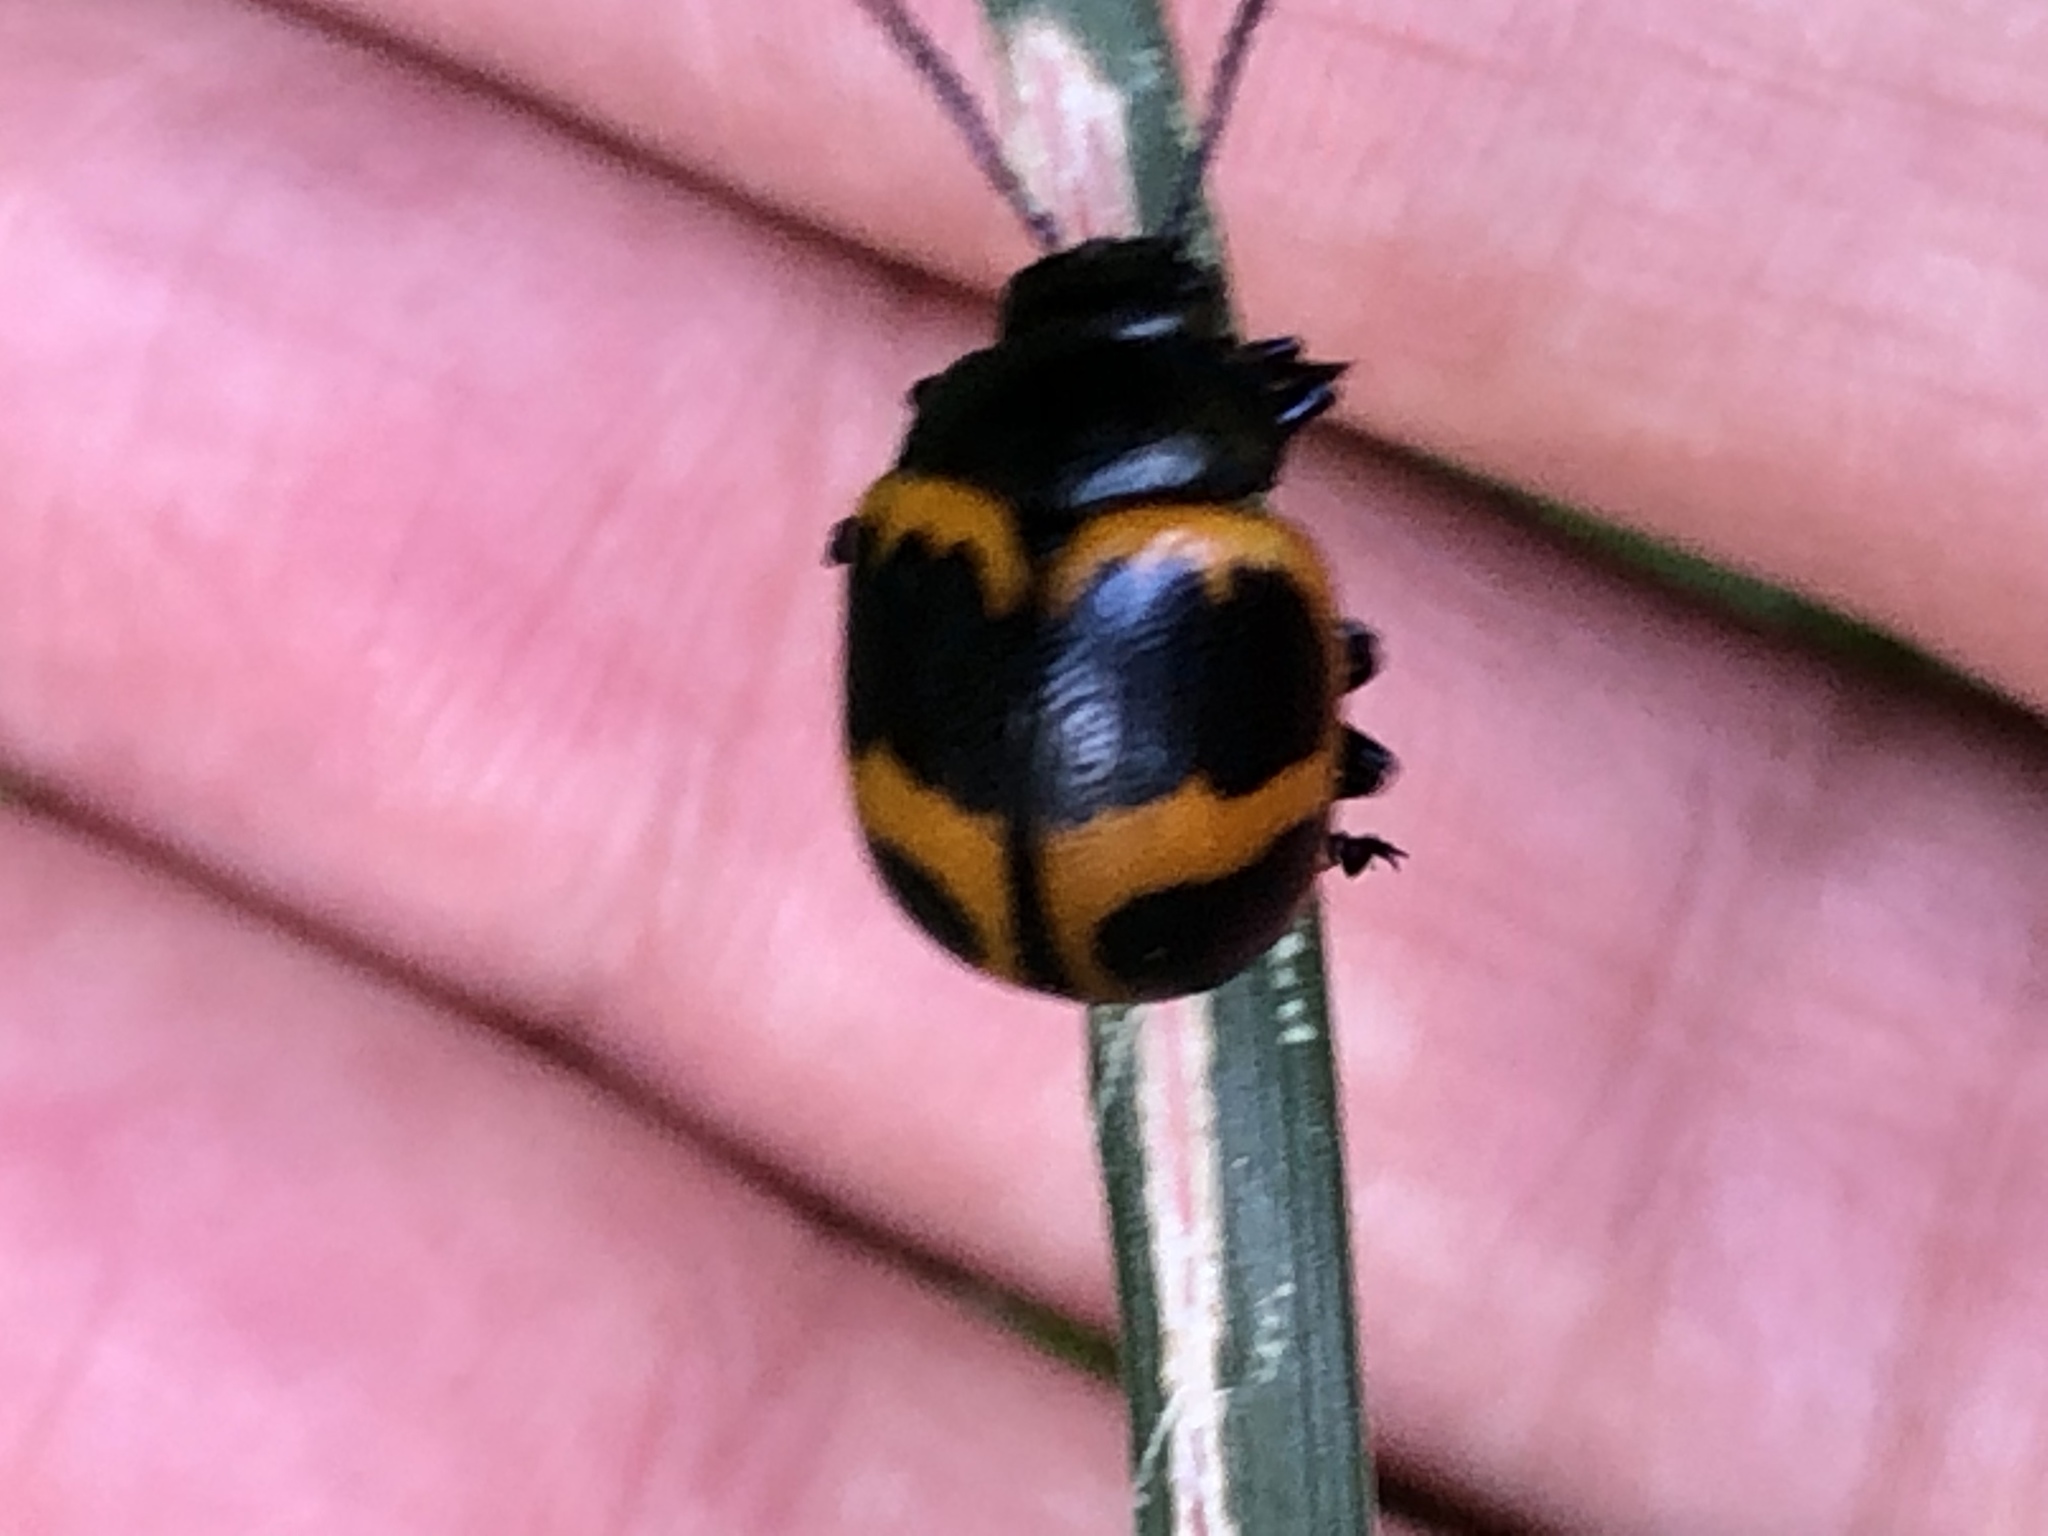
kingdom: Animalia
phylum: Arthropoda
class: Insecta
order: Coleoptera
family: Chrysomelidae
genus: Labidomera
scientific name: Labidomera clivicollis
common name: Swamp milkweed leaf beetle
